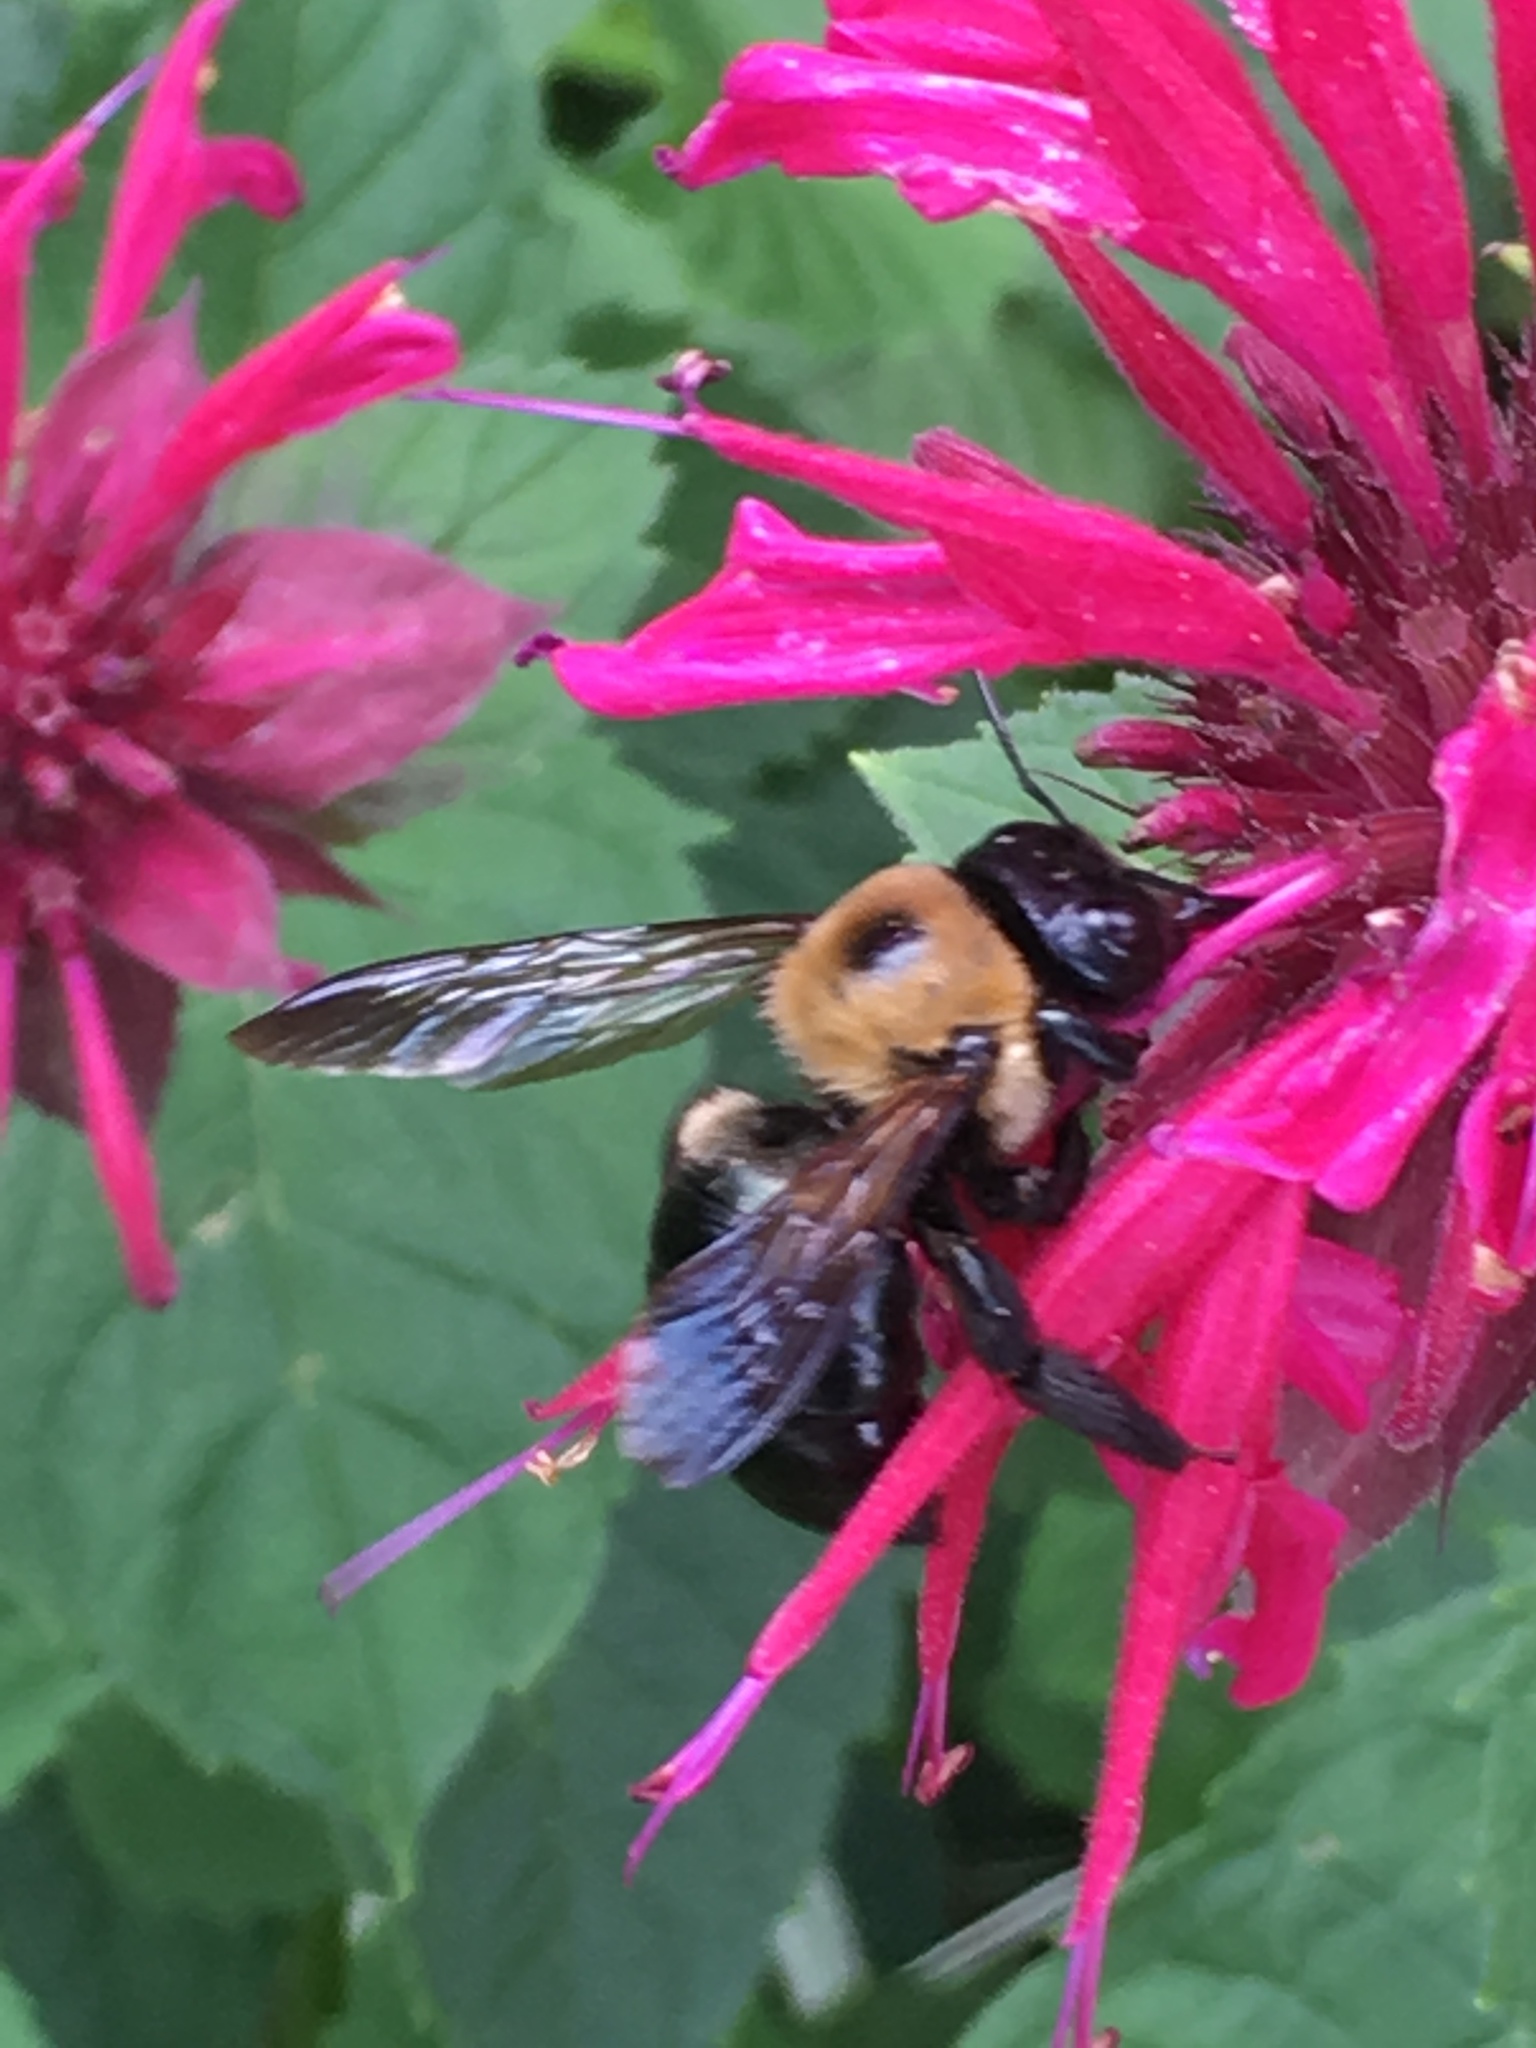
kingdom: Animalia
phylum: Arthropoda
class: Insecta
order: Hymenoptera
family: Apidae
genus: Xylocopa
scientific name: Xylocopa virginica
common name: Carpenter bee
